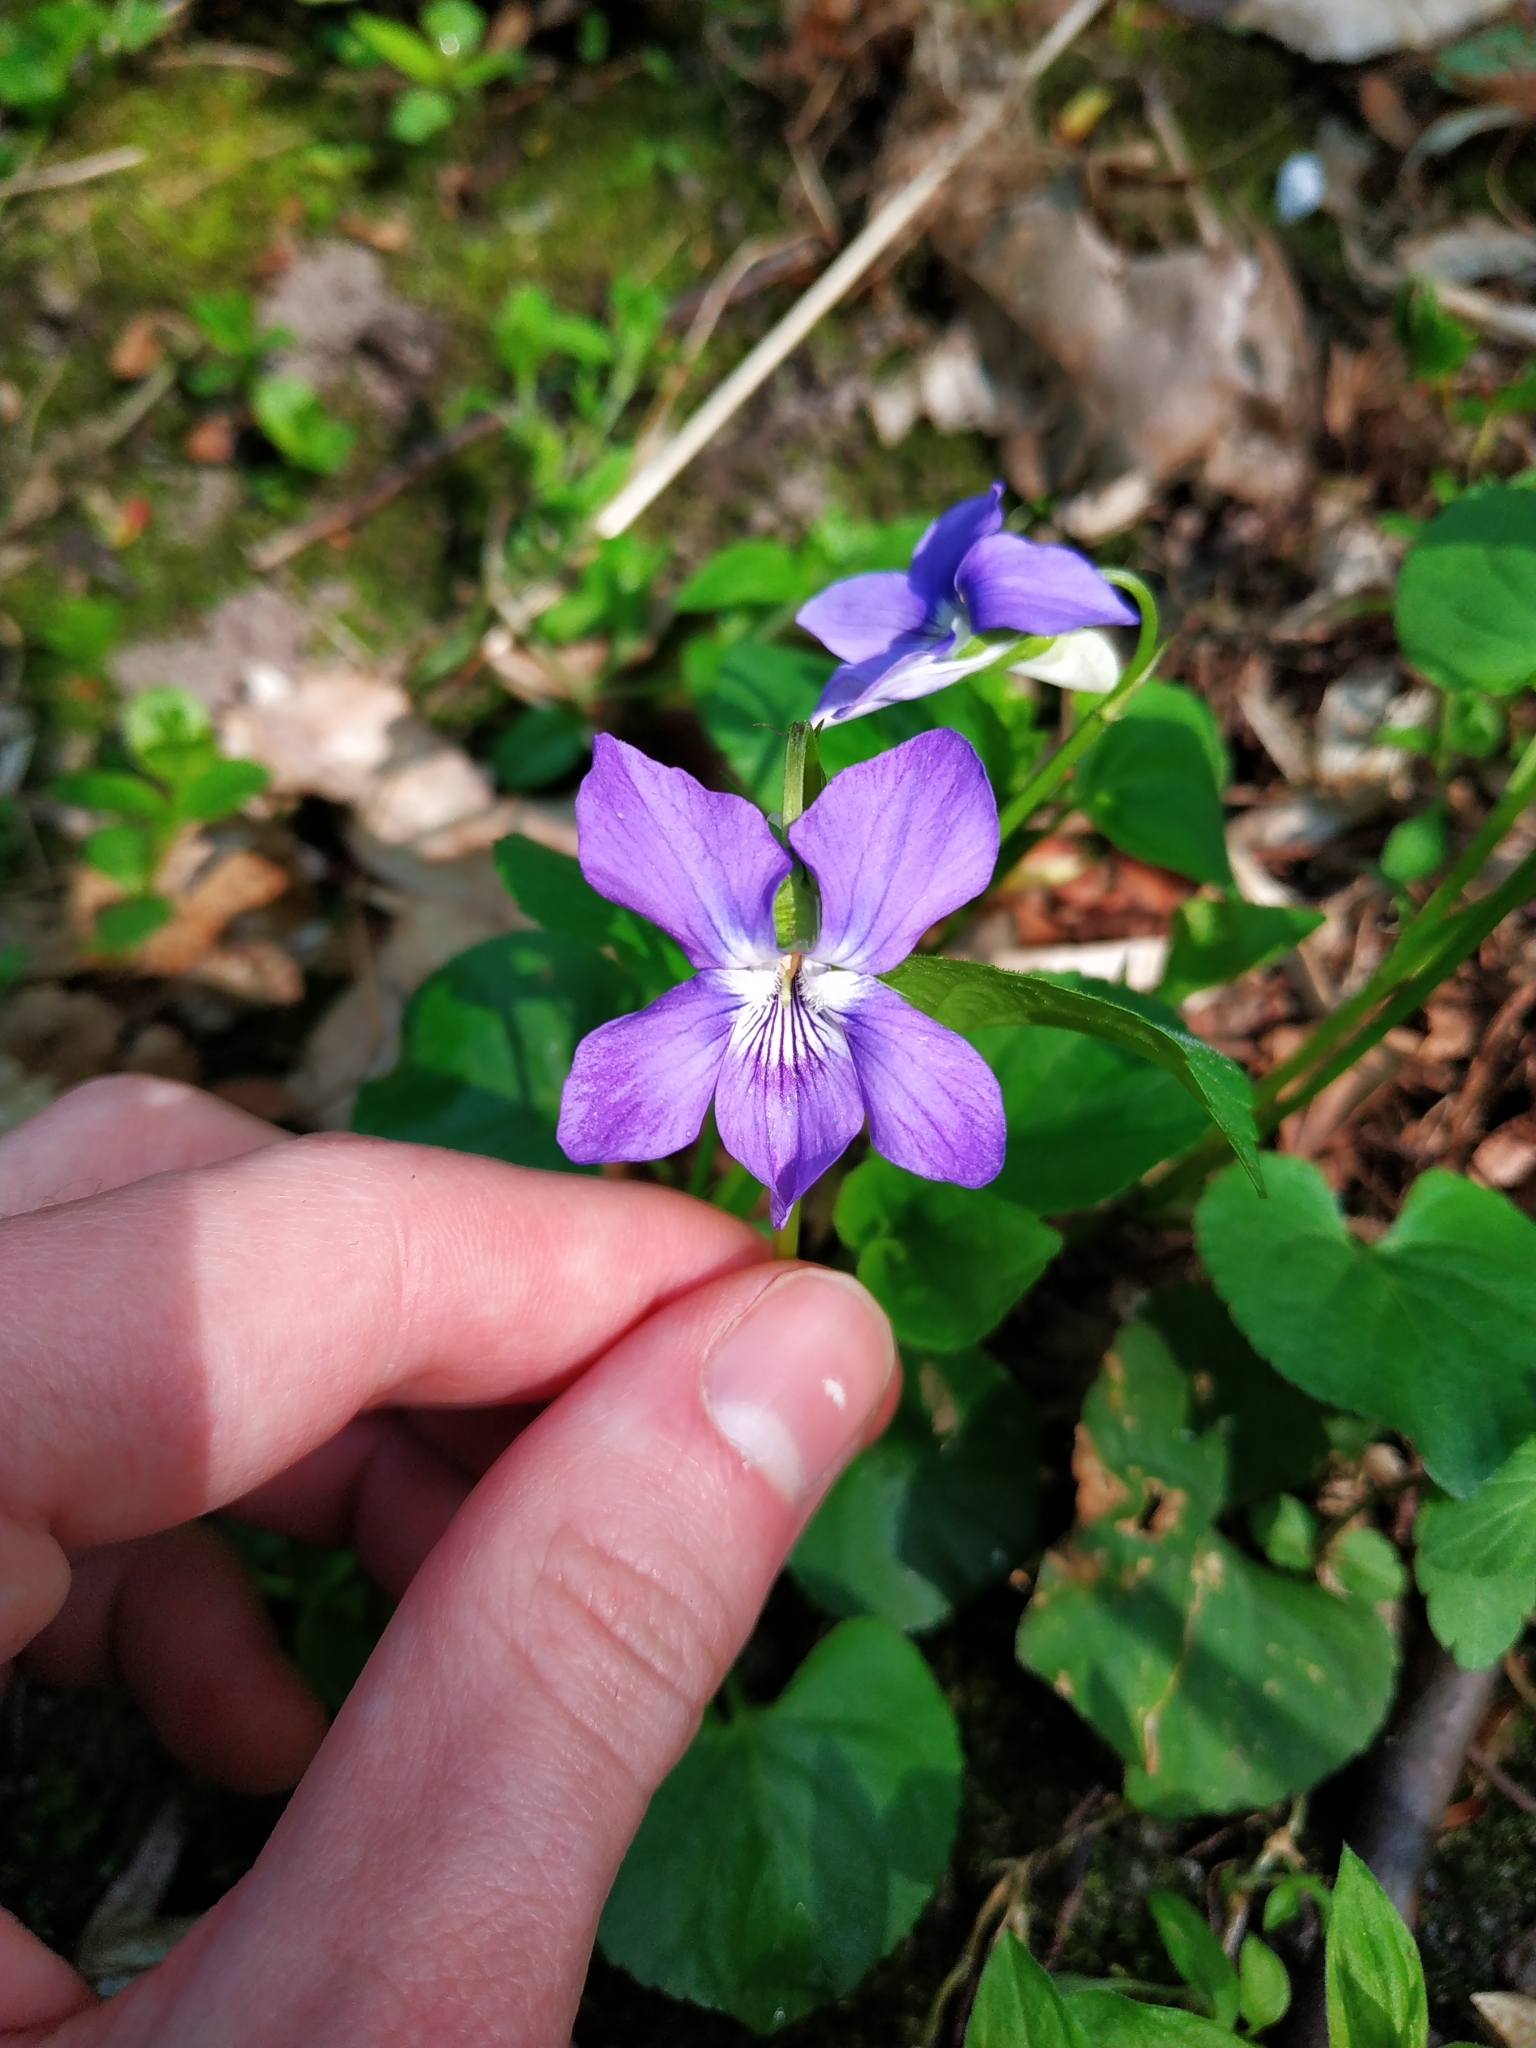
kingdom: Plantae
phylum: Tracheophyta
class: Magnoliopsida
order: Malpighiales
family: Violaceae
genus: Viola
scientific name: Viola riviniana
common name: Common dog-violet
